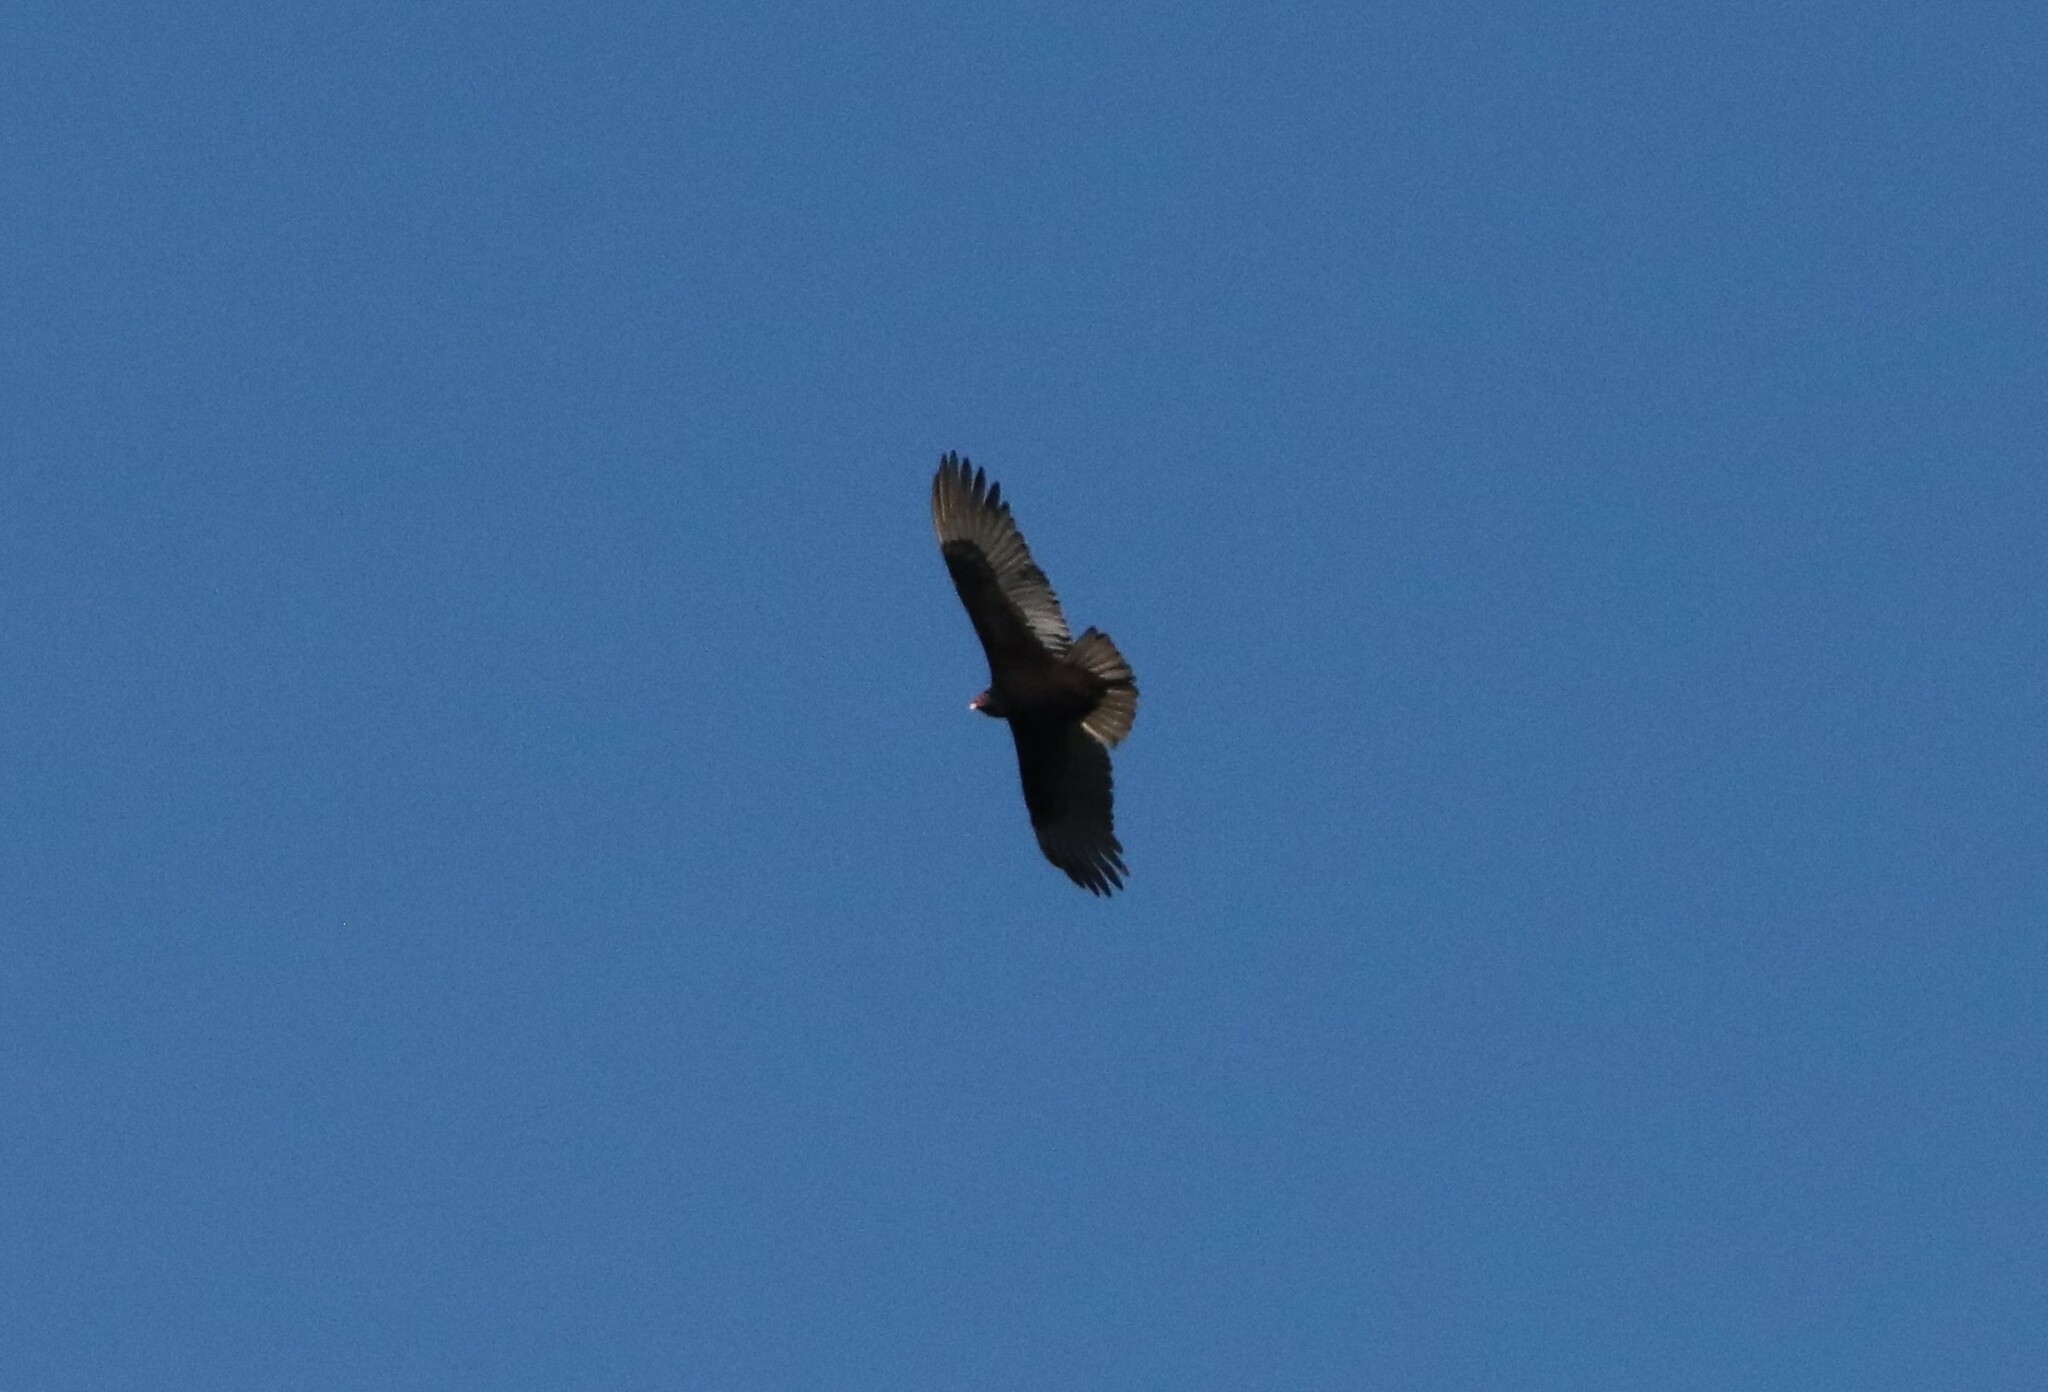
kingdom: Animalia
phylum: Chordata
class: Aves
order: Accipitriformes
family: Cathartidae
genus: Cathartes
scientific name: Cathartes aura
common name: Turkey vulture
